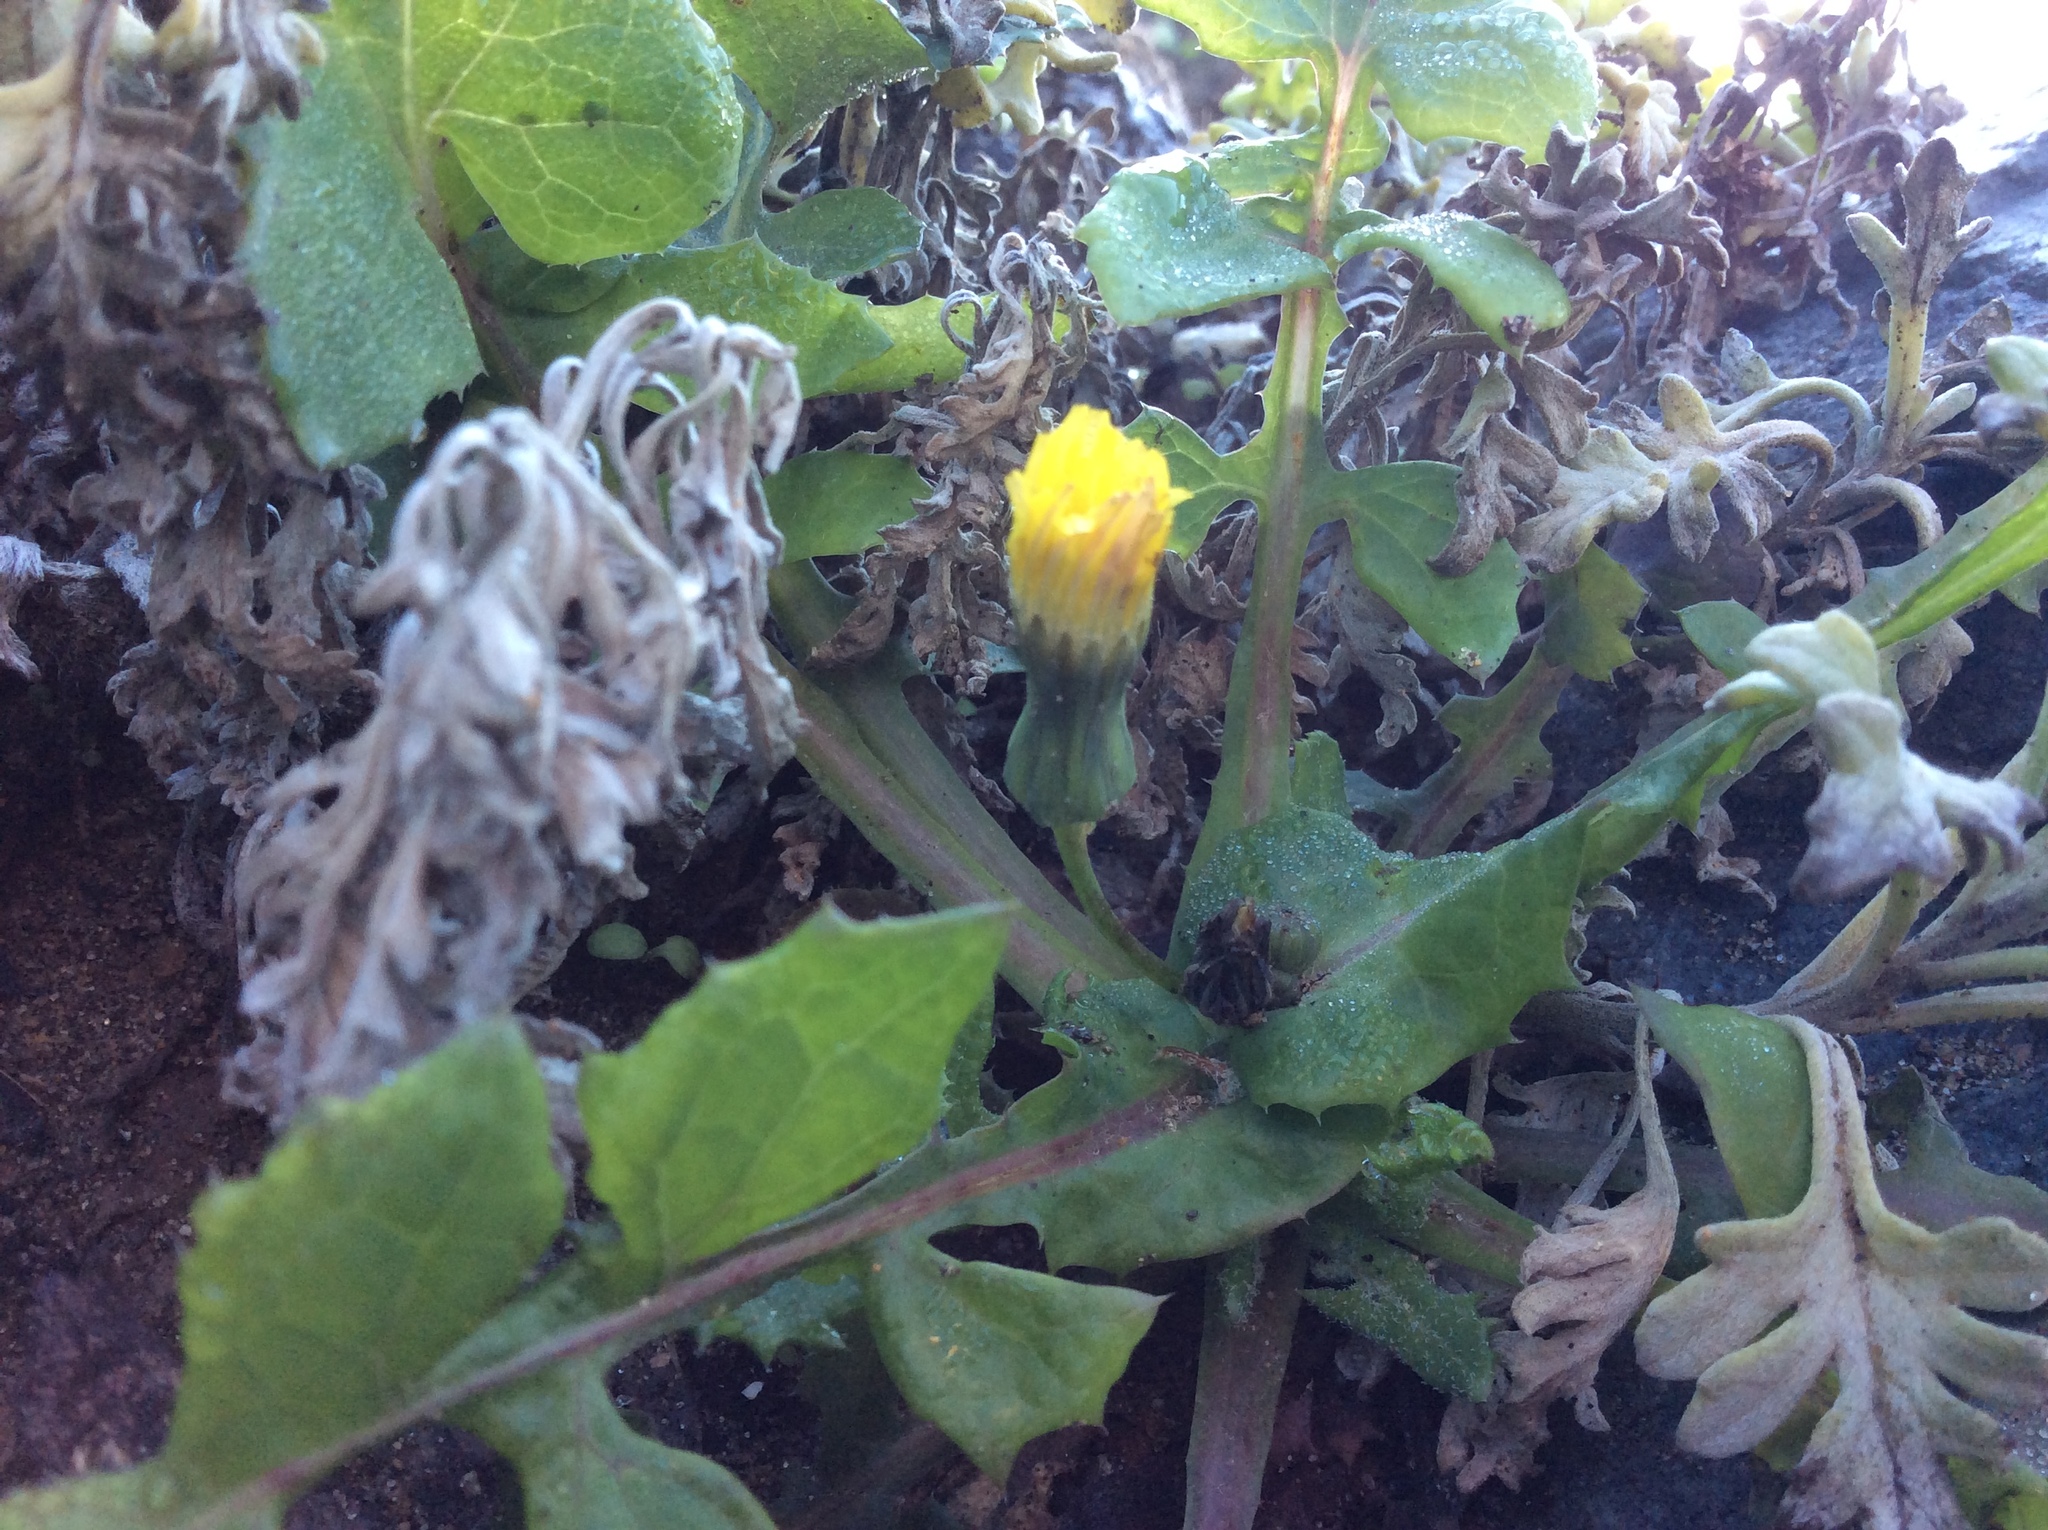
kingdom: Plantae
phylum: Tracheophyta
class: Magnoliopsida
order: Asterales
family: Asteraceae
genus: Sonchus
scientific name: Sonchus oleraceus
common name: Common sowthistle
